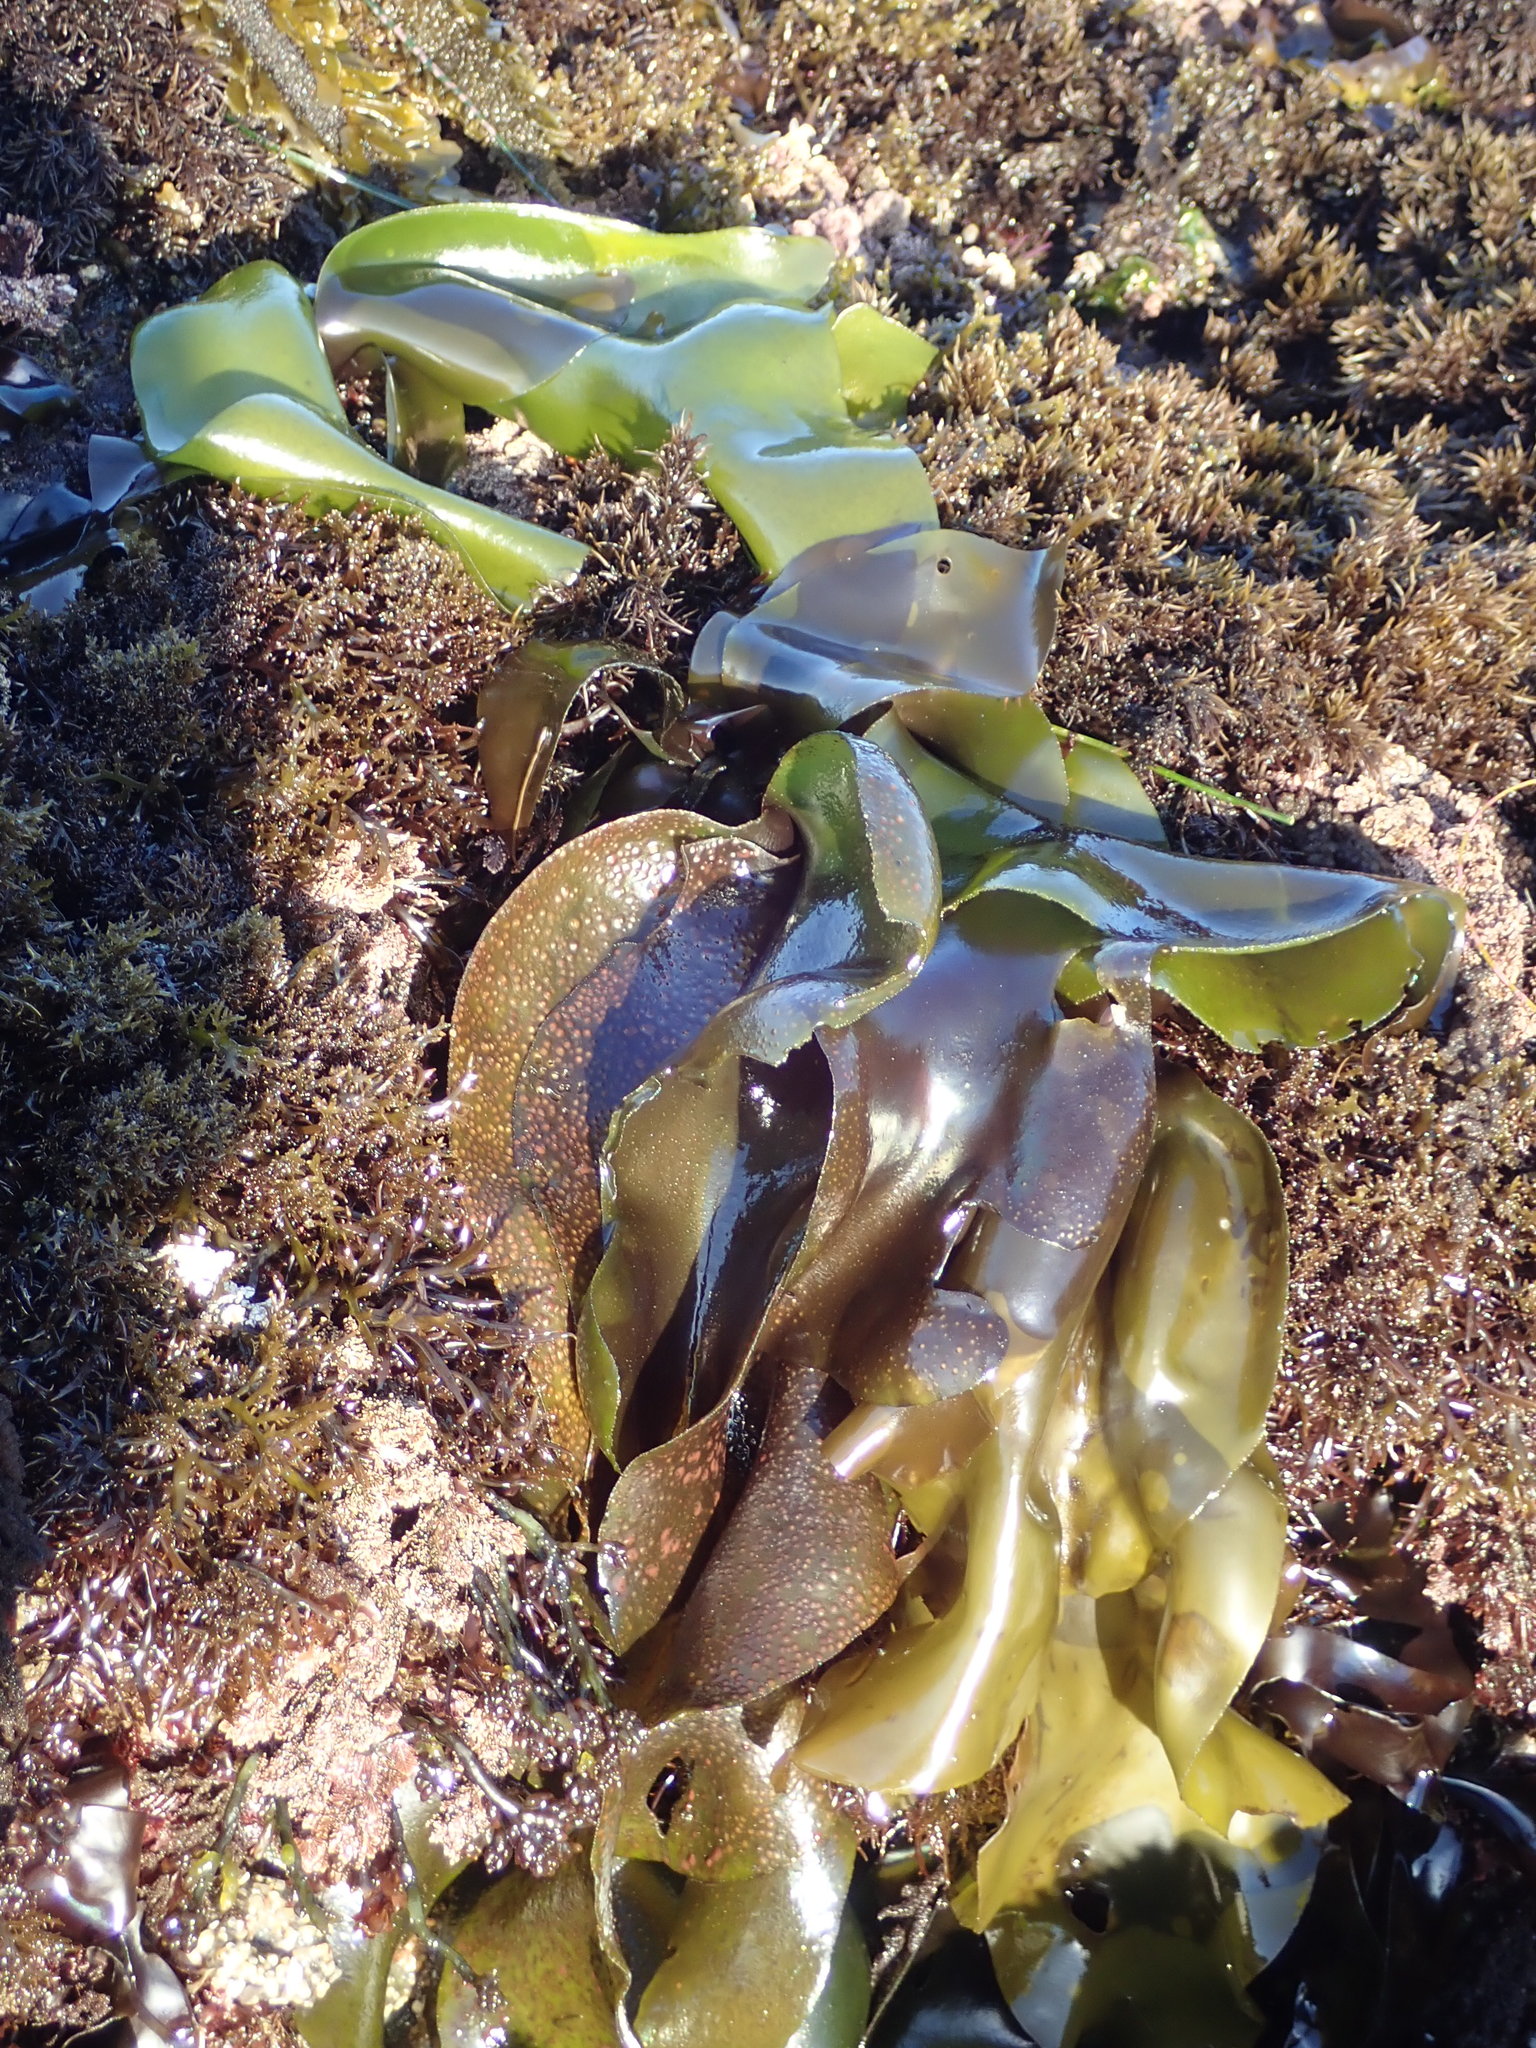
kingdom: Plantae
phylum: Rhodophyta
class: Florideophyceae
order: Gigartinales
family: Gigartinaceae
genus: Mazzaella
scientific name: Mazzaella flaccida
